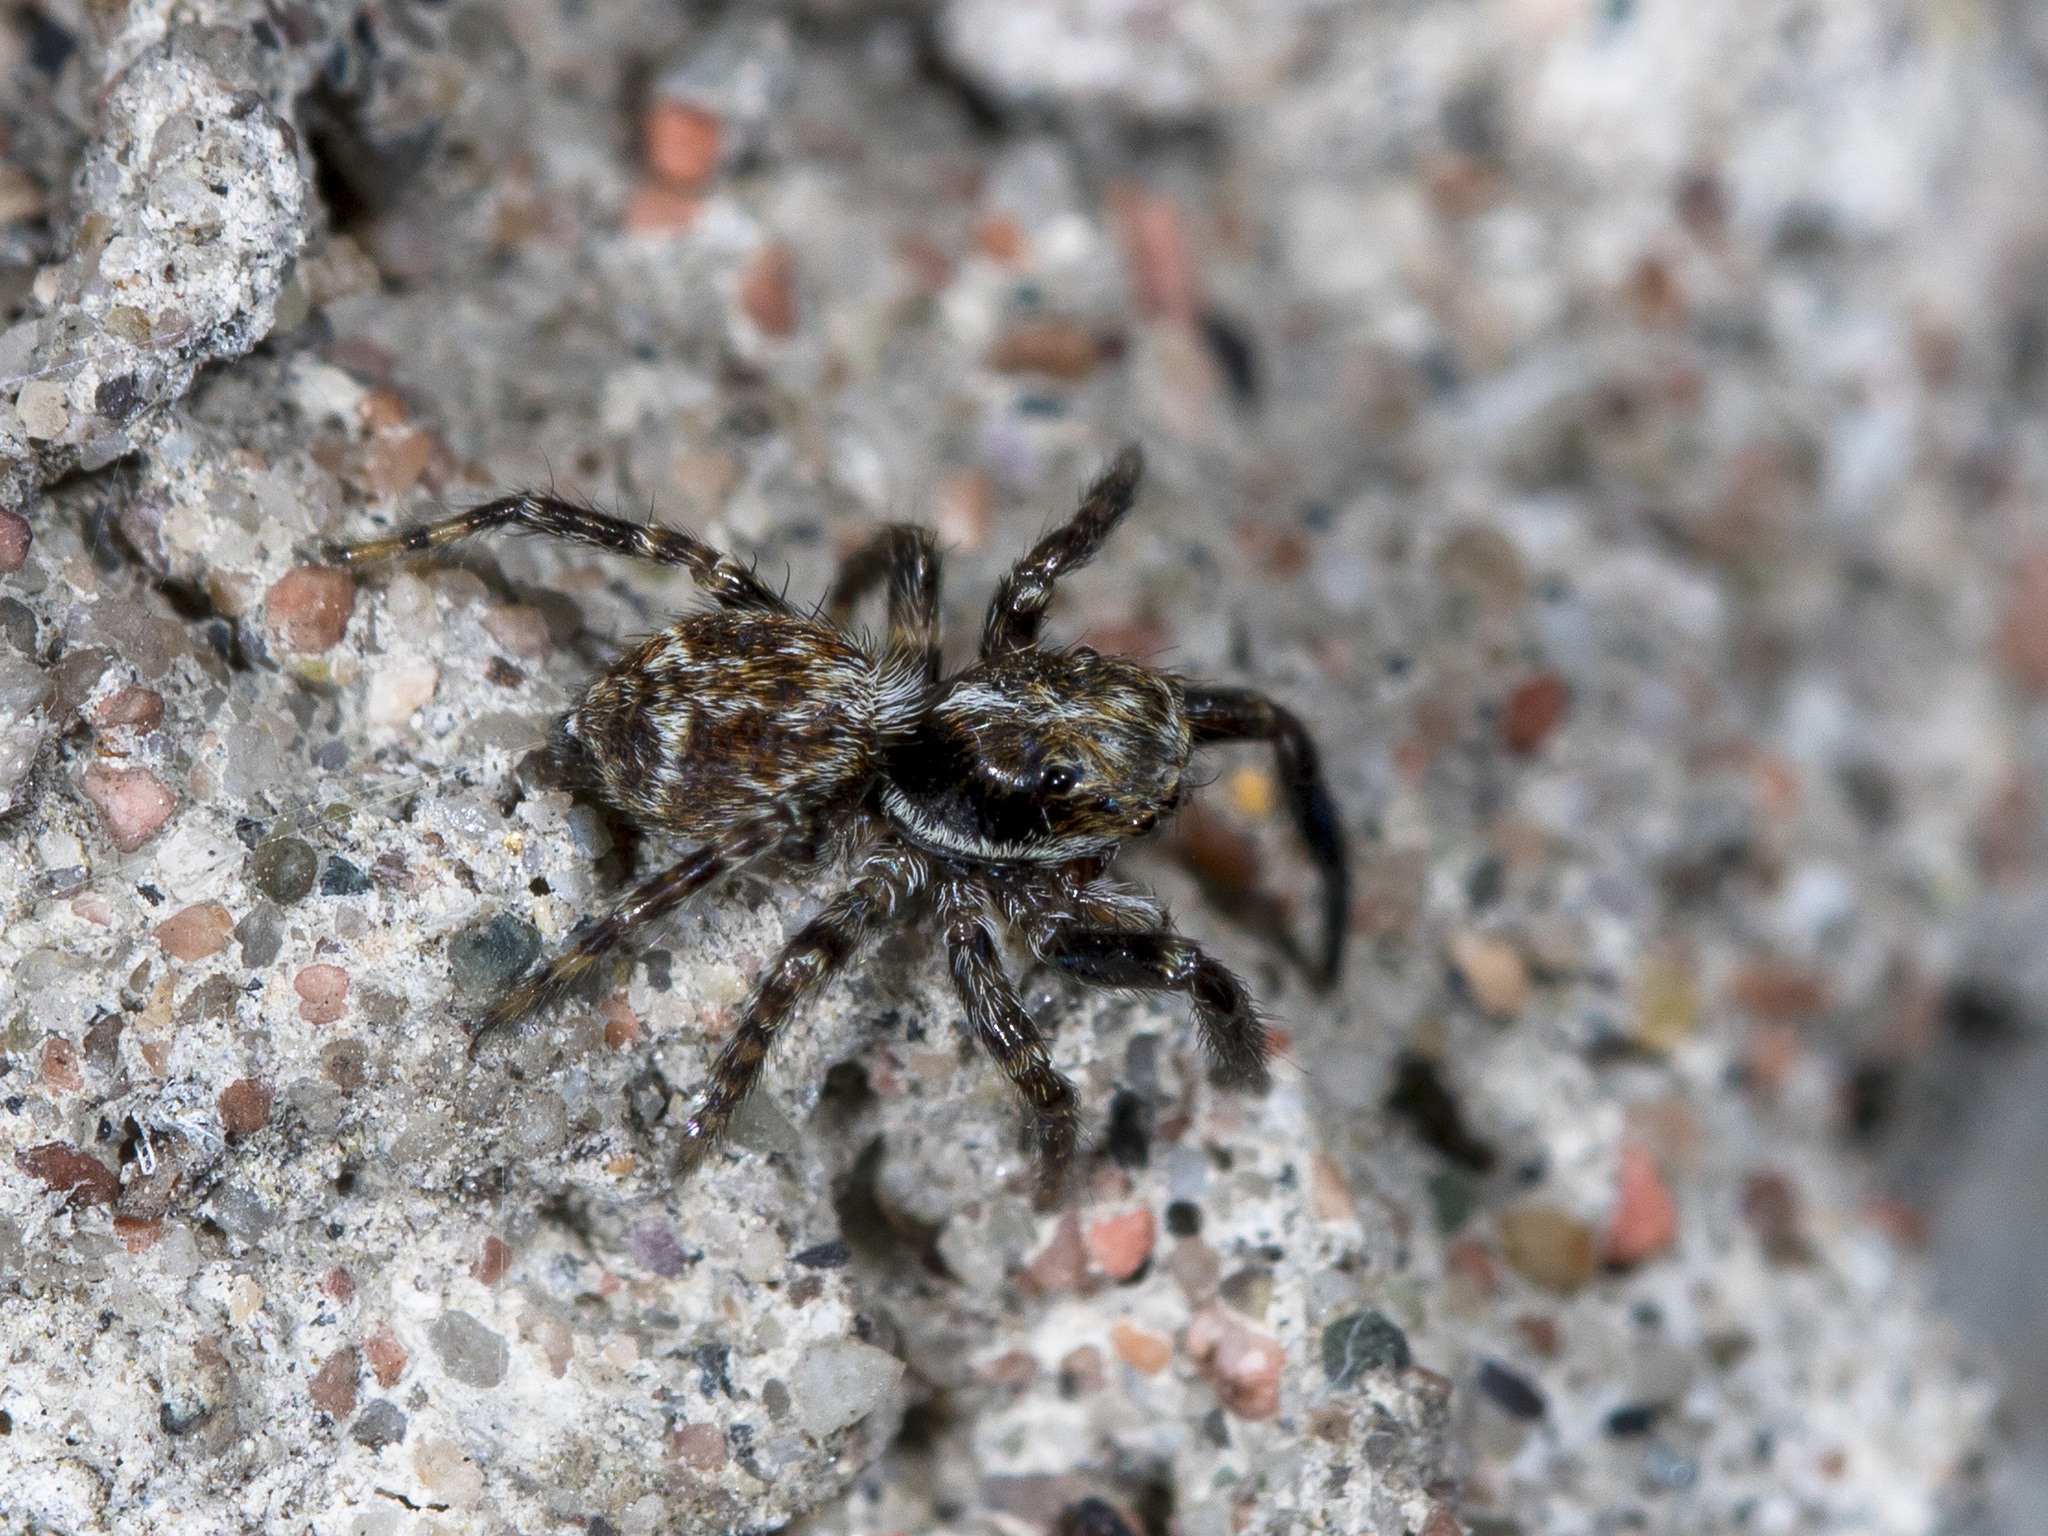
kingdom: Animalia
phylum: Arthropoda
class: Arachnida
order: Araneae
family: Salticidae
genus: Pseudeuophrys
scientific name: Pseudeuophrys obsoleta
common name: Whelk-shell jumper
